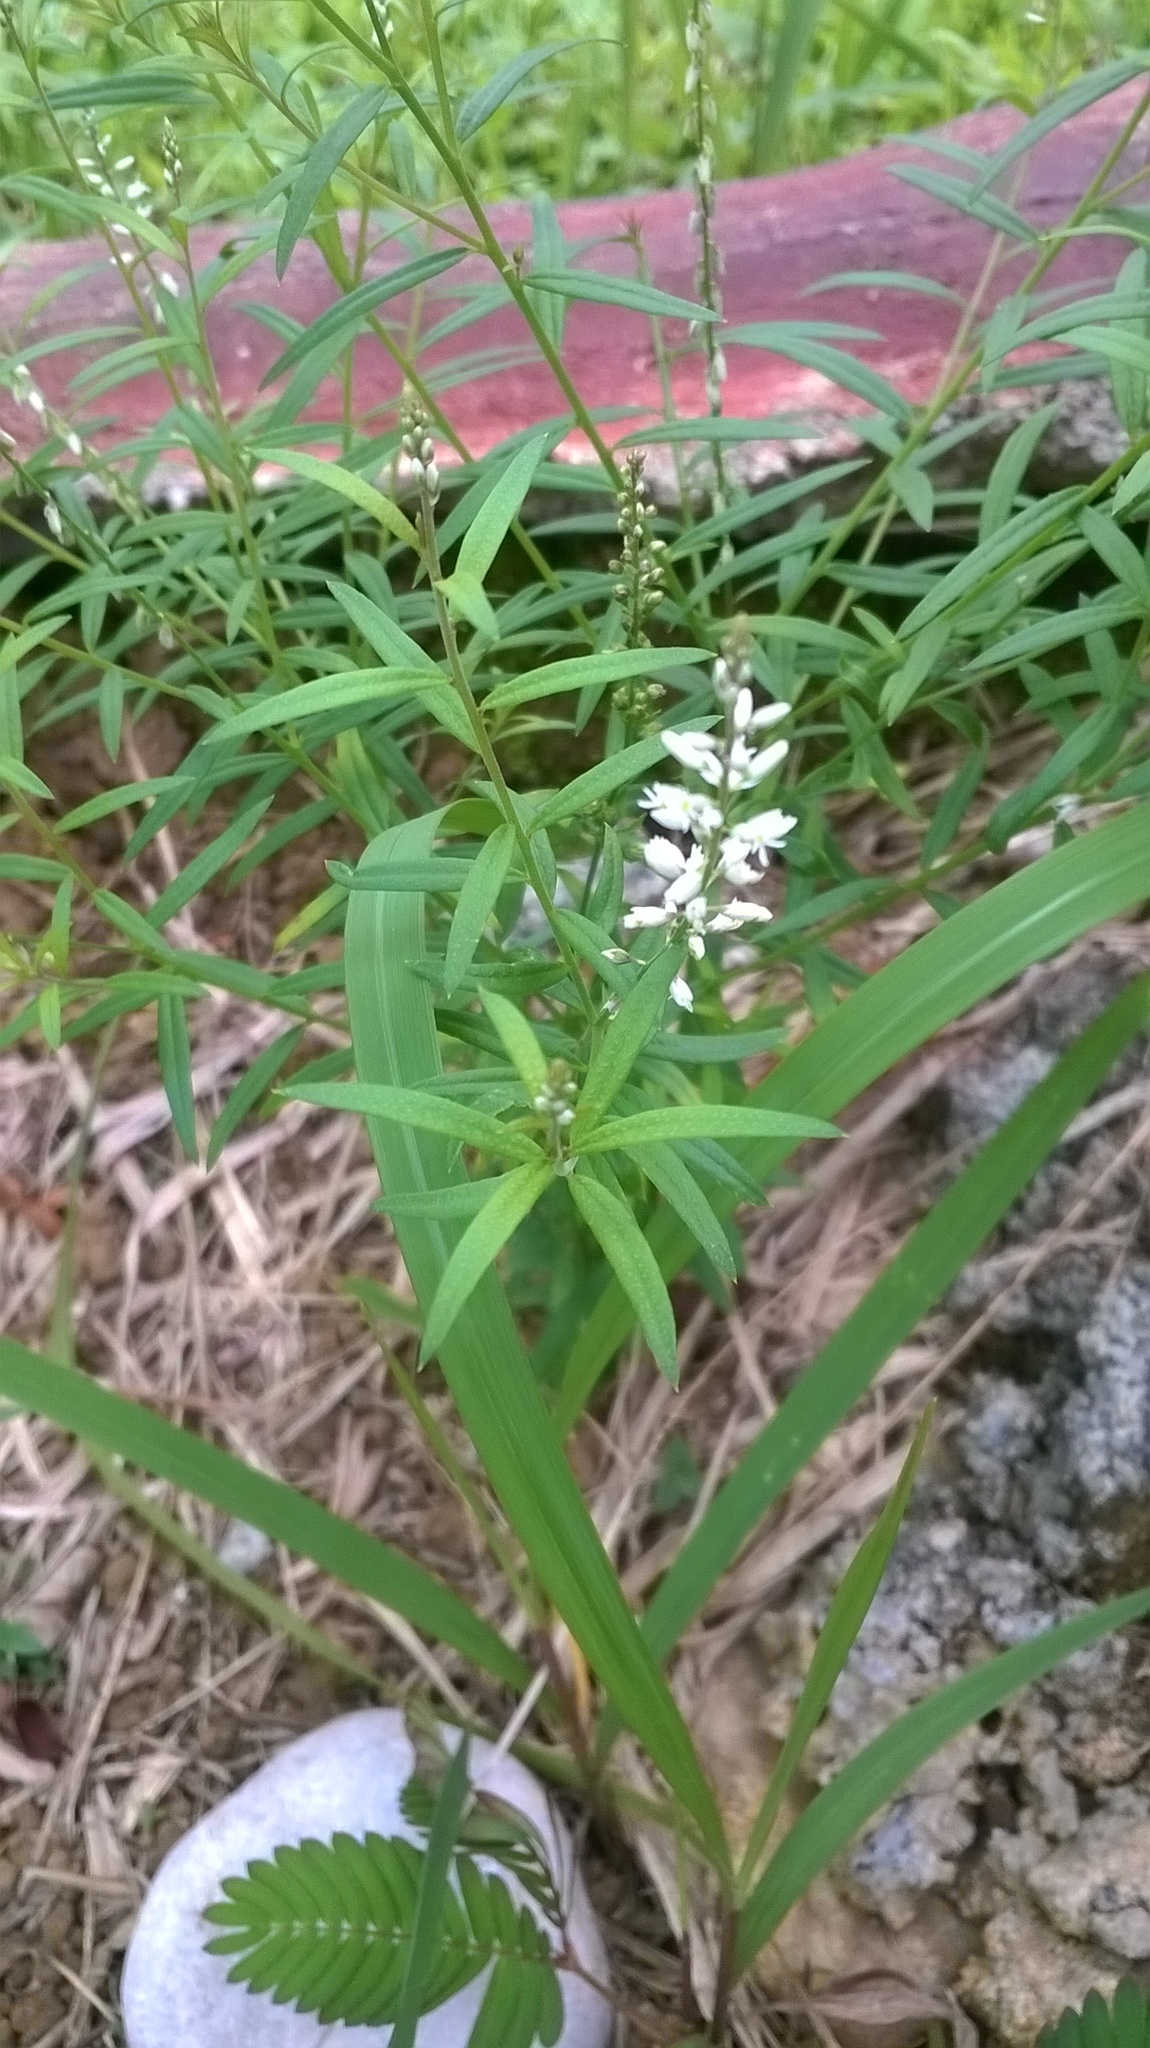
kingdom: Plantae
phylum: Tracheophyta
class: Magnoliopsida
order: Fabales
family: Polygalaceae
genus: Polygala
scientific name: Polygala paniculata
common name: Orosne
